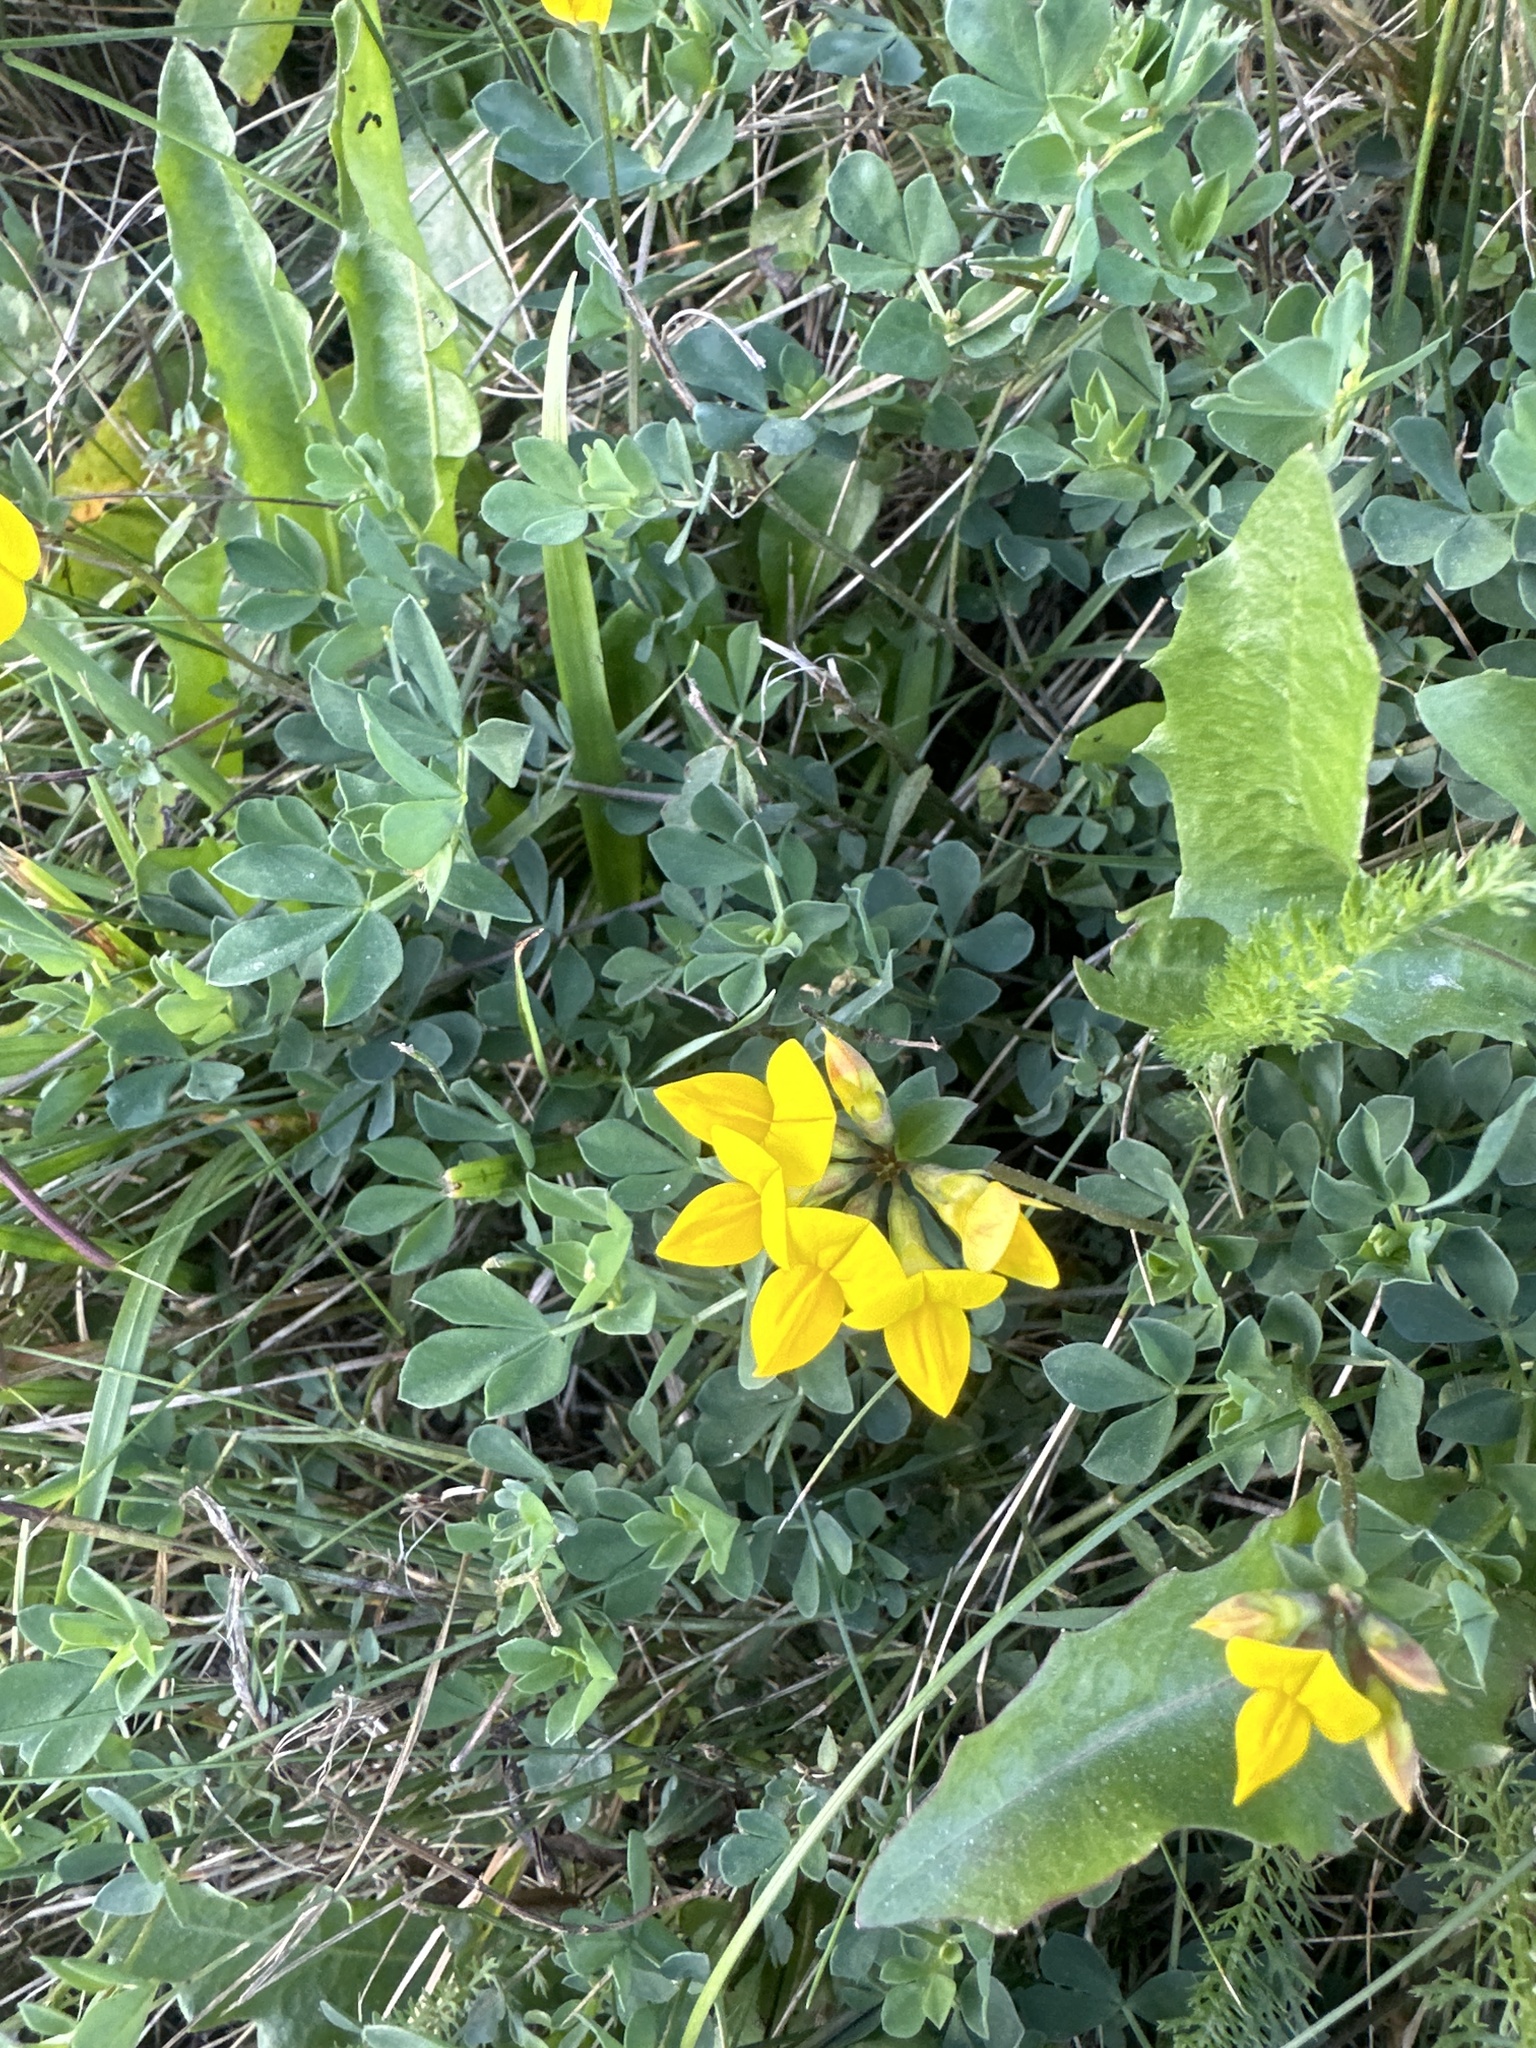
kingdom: Plantae
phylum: Tracheophyta
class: Magnoliopsida
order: Fabales
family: Fabaceae
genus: Lotus
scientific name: Lotus corniculatus
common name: Common bird's-foot-trefoil
